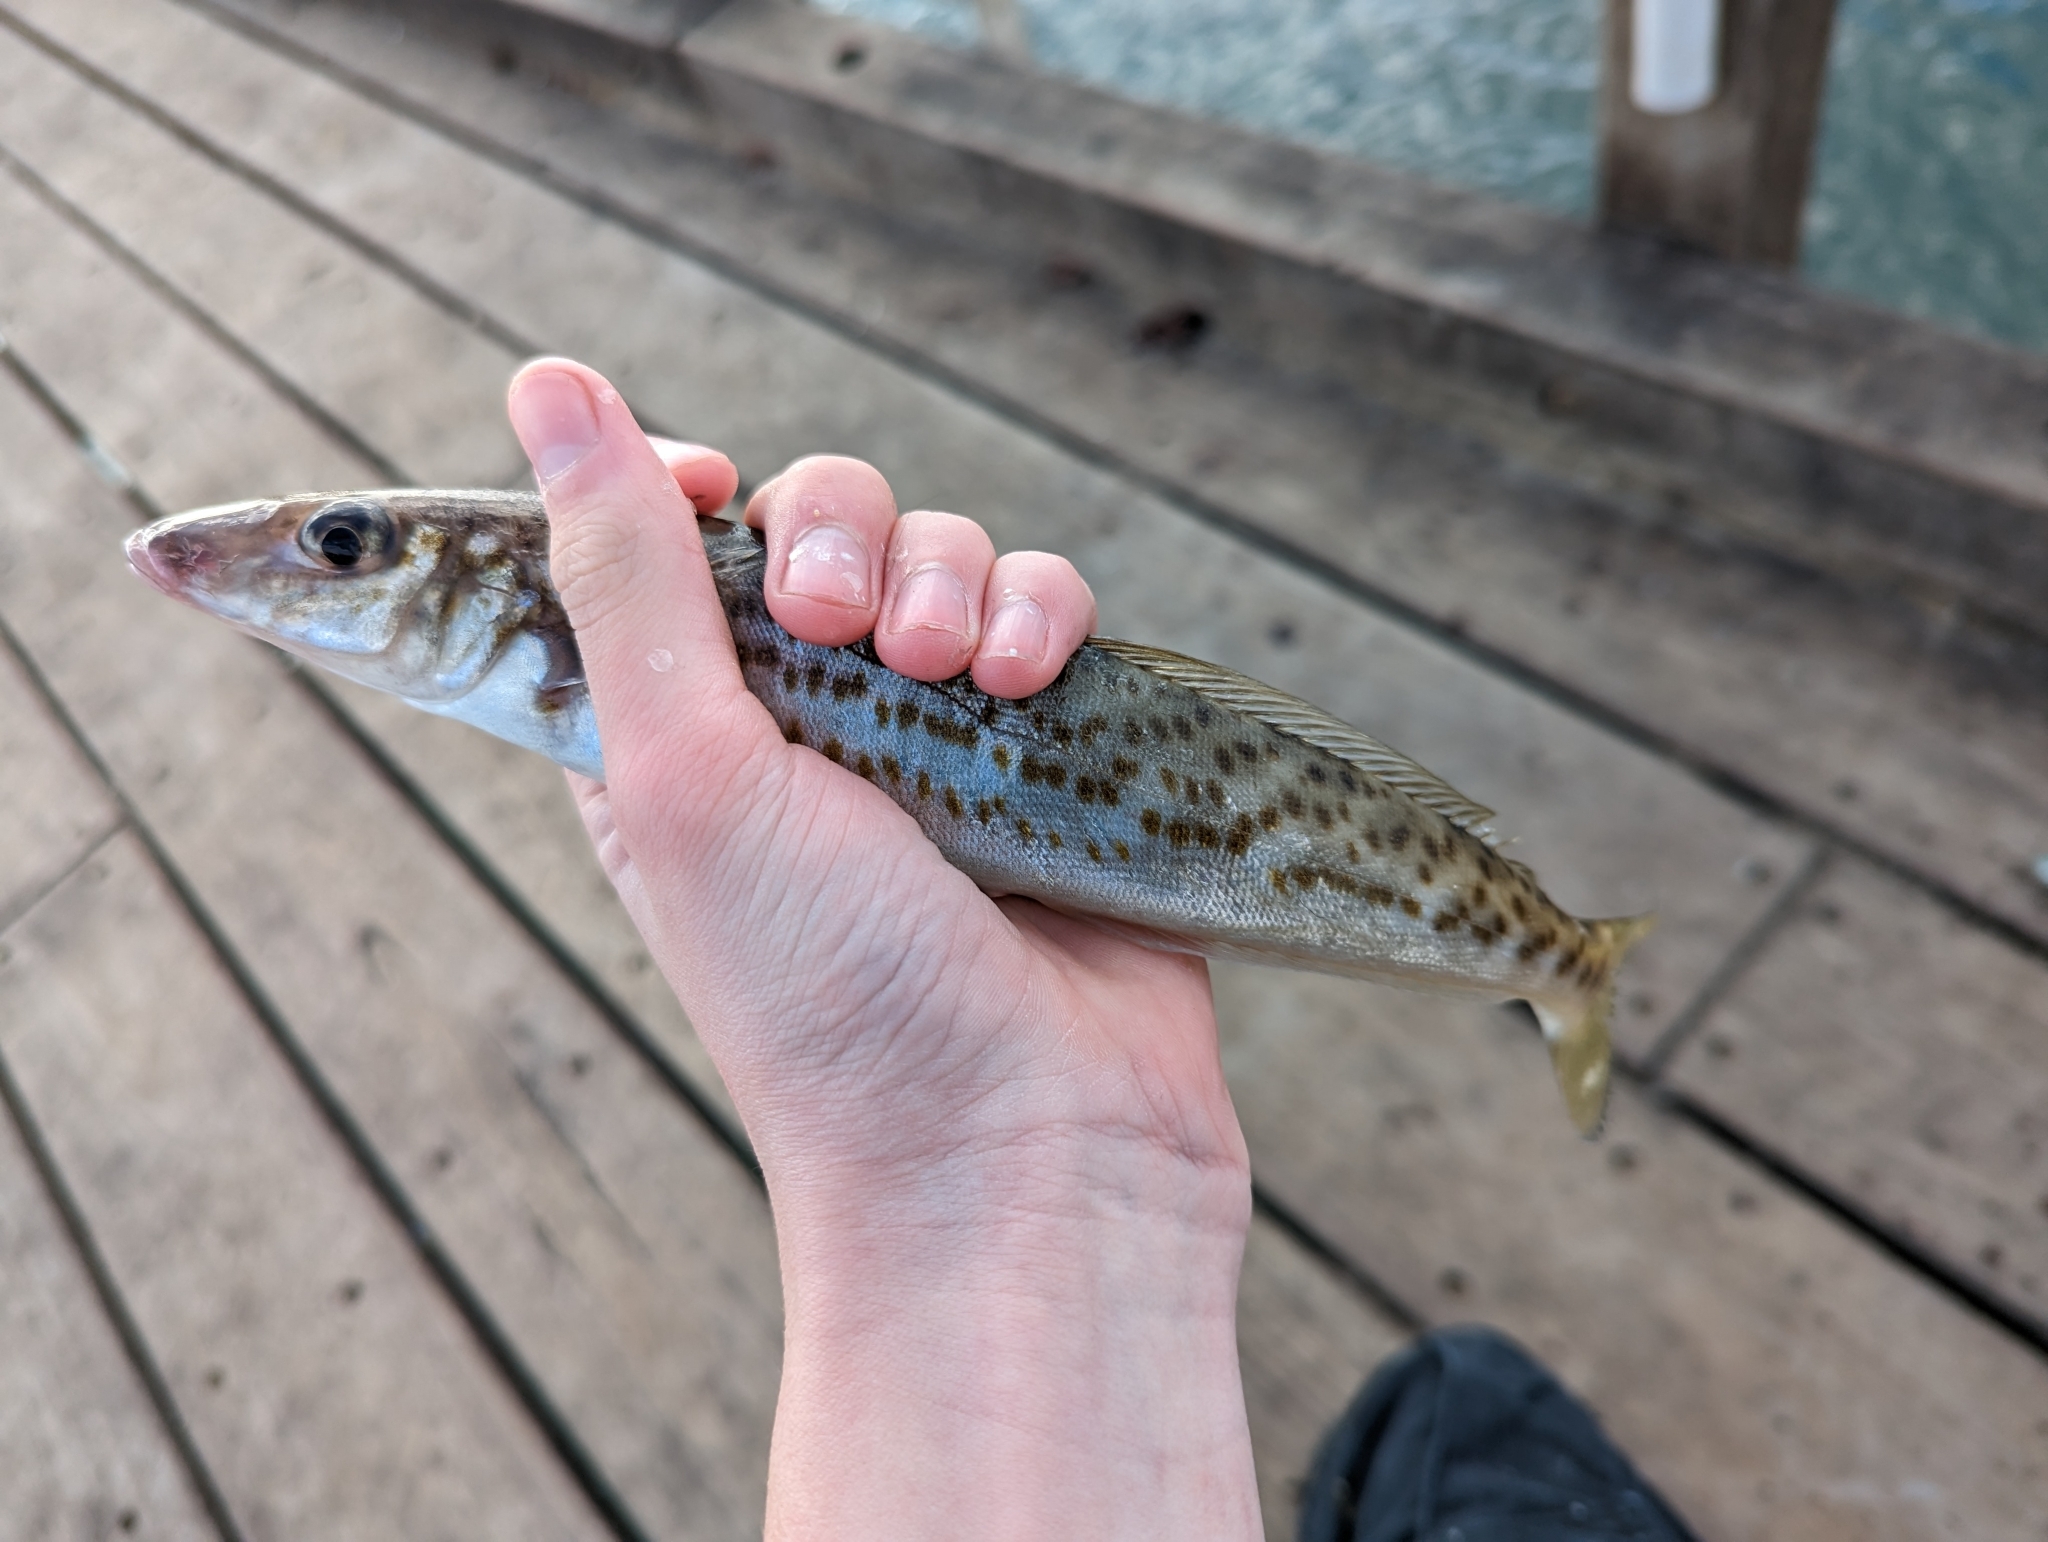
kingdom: Animalia
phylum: Chordata
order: Perciformes
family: Sillaginidae
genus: Sillaginodes
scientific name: Sillaginodes punctatus
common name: King george whiting
